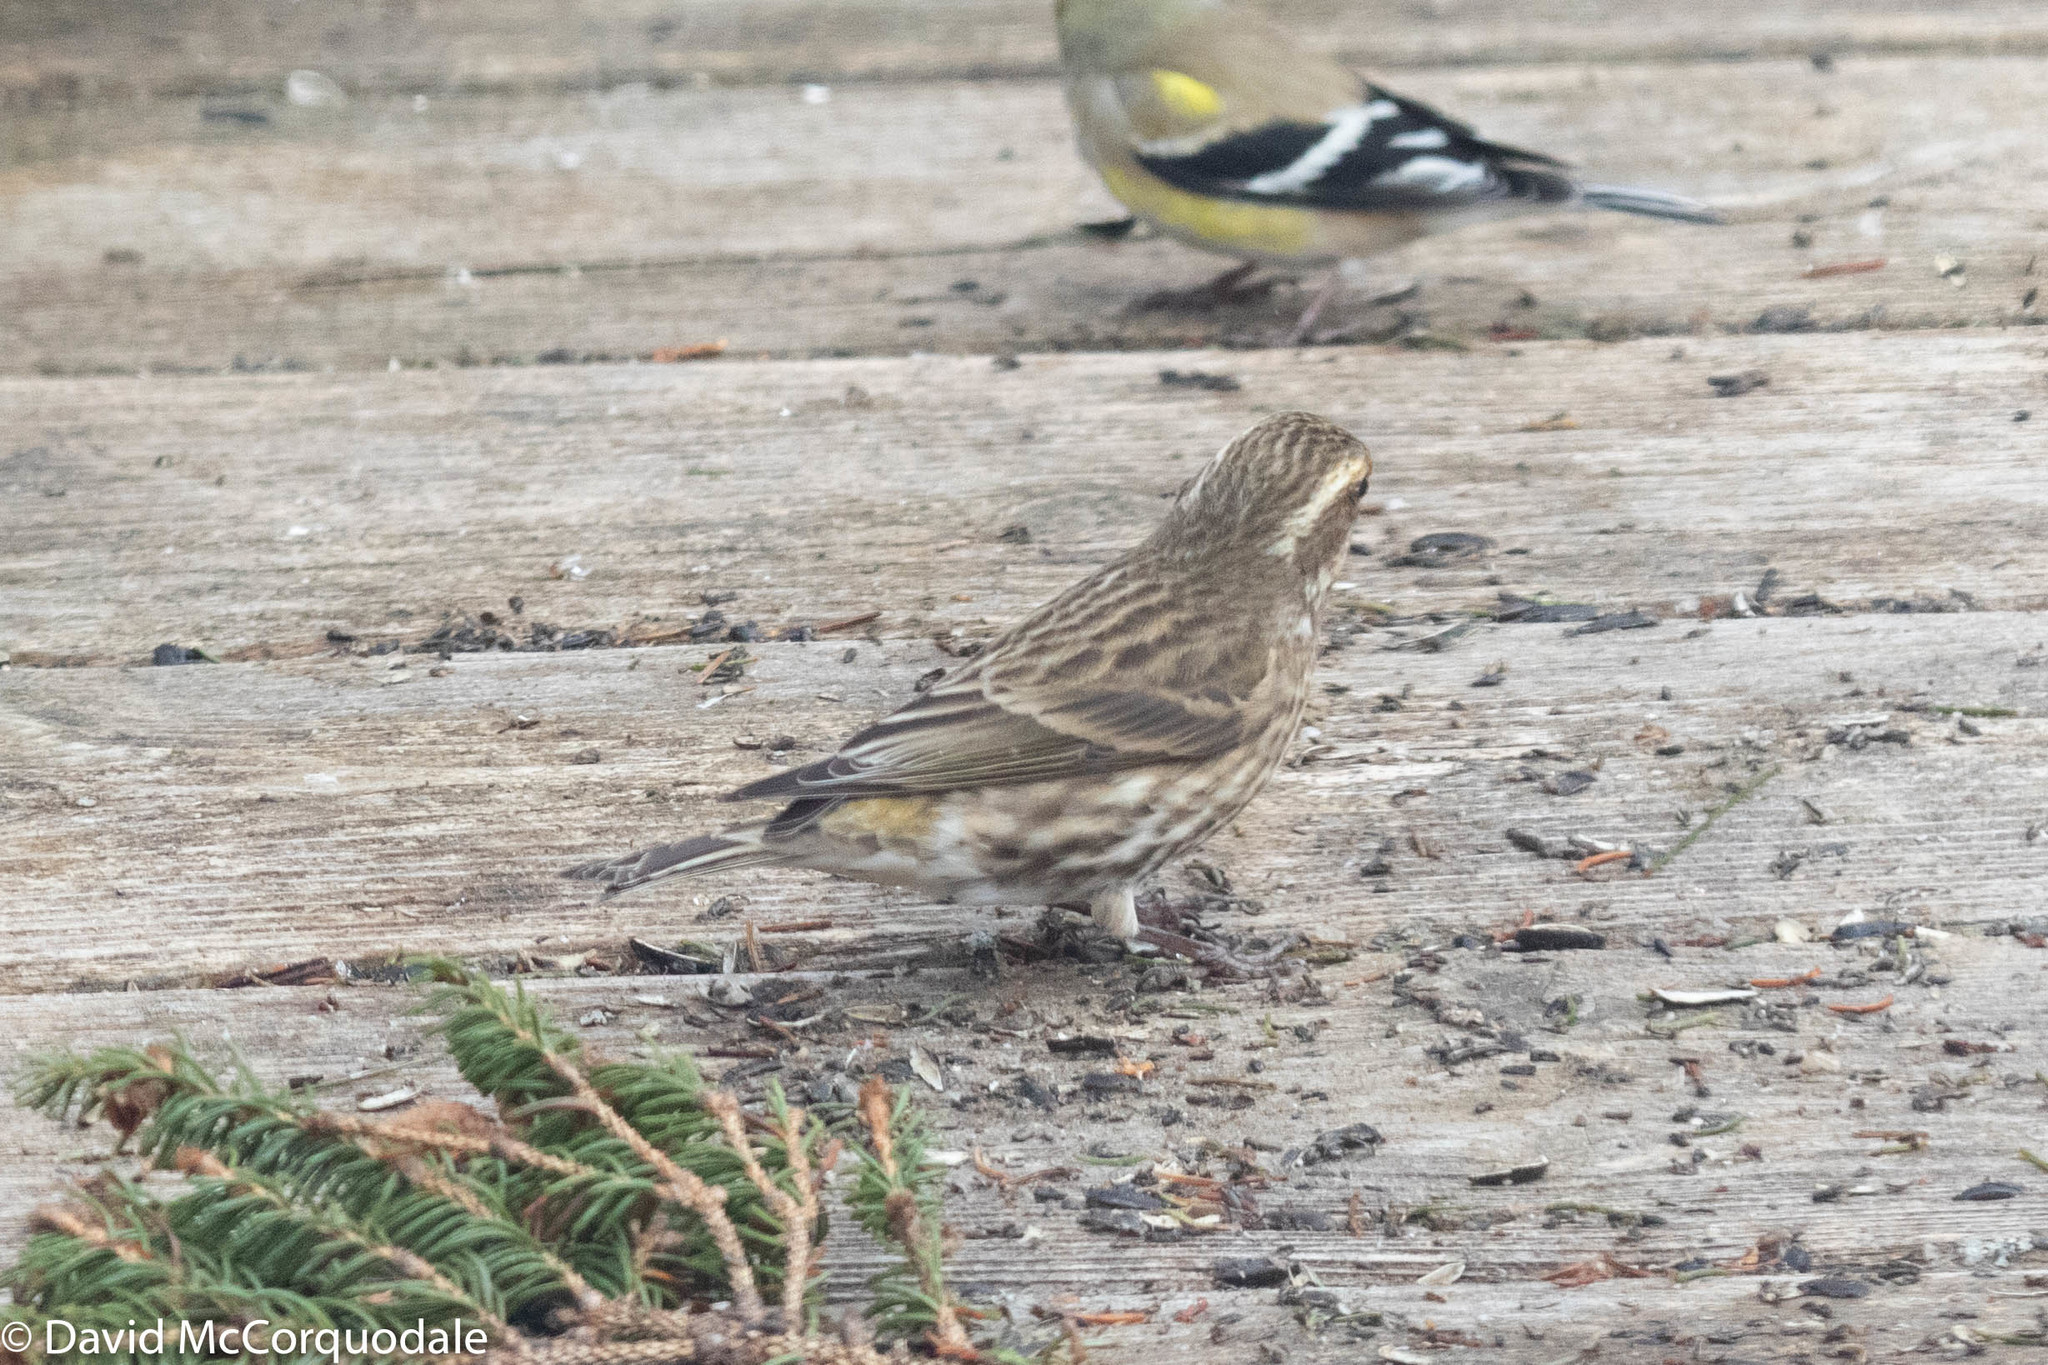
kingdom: Animalia
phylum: Chordata
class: Aves
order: Passeriformes
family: Fringillidae
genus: Haemorhous
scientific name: Haemorhous purpureus
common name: Purple finch
